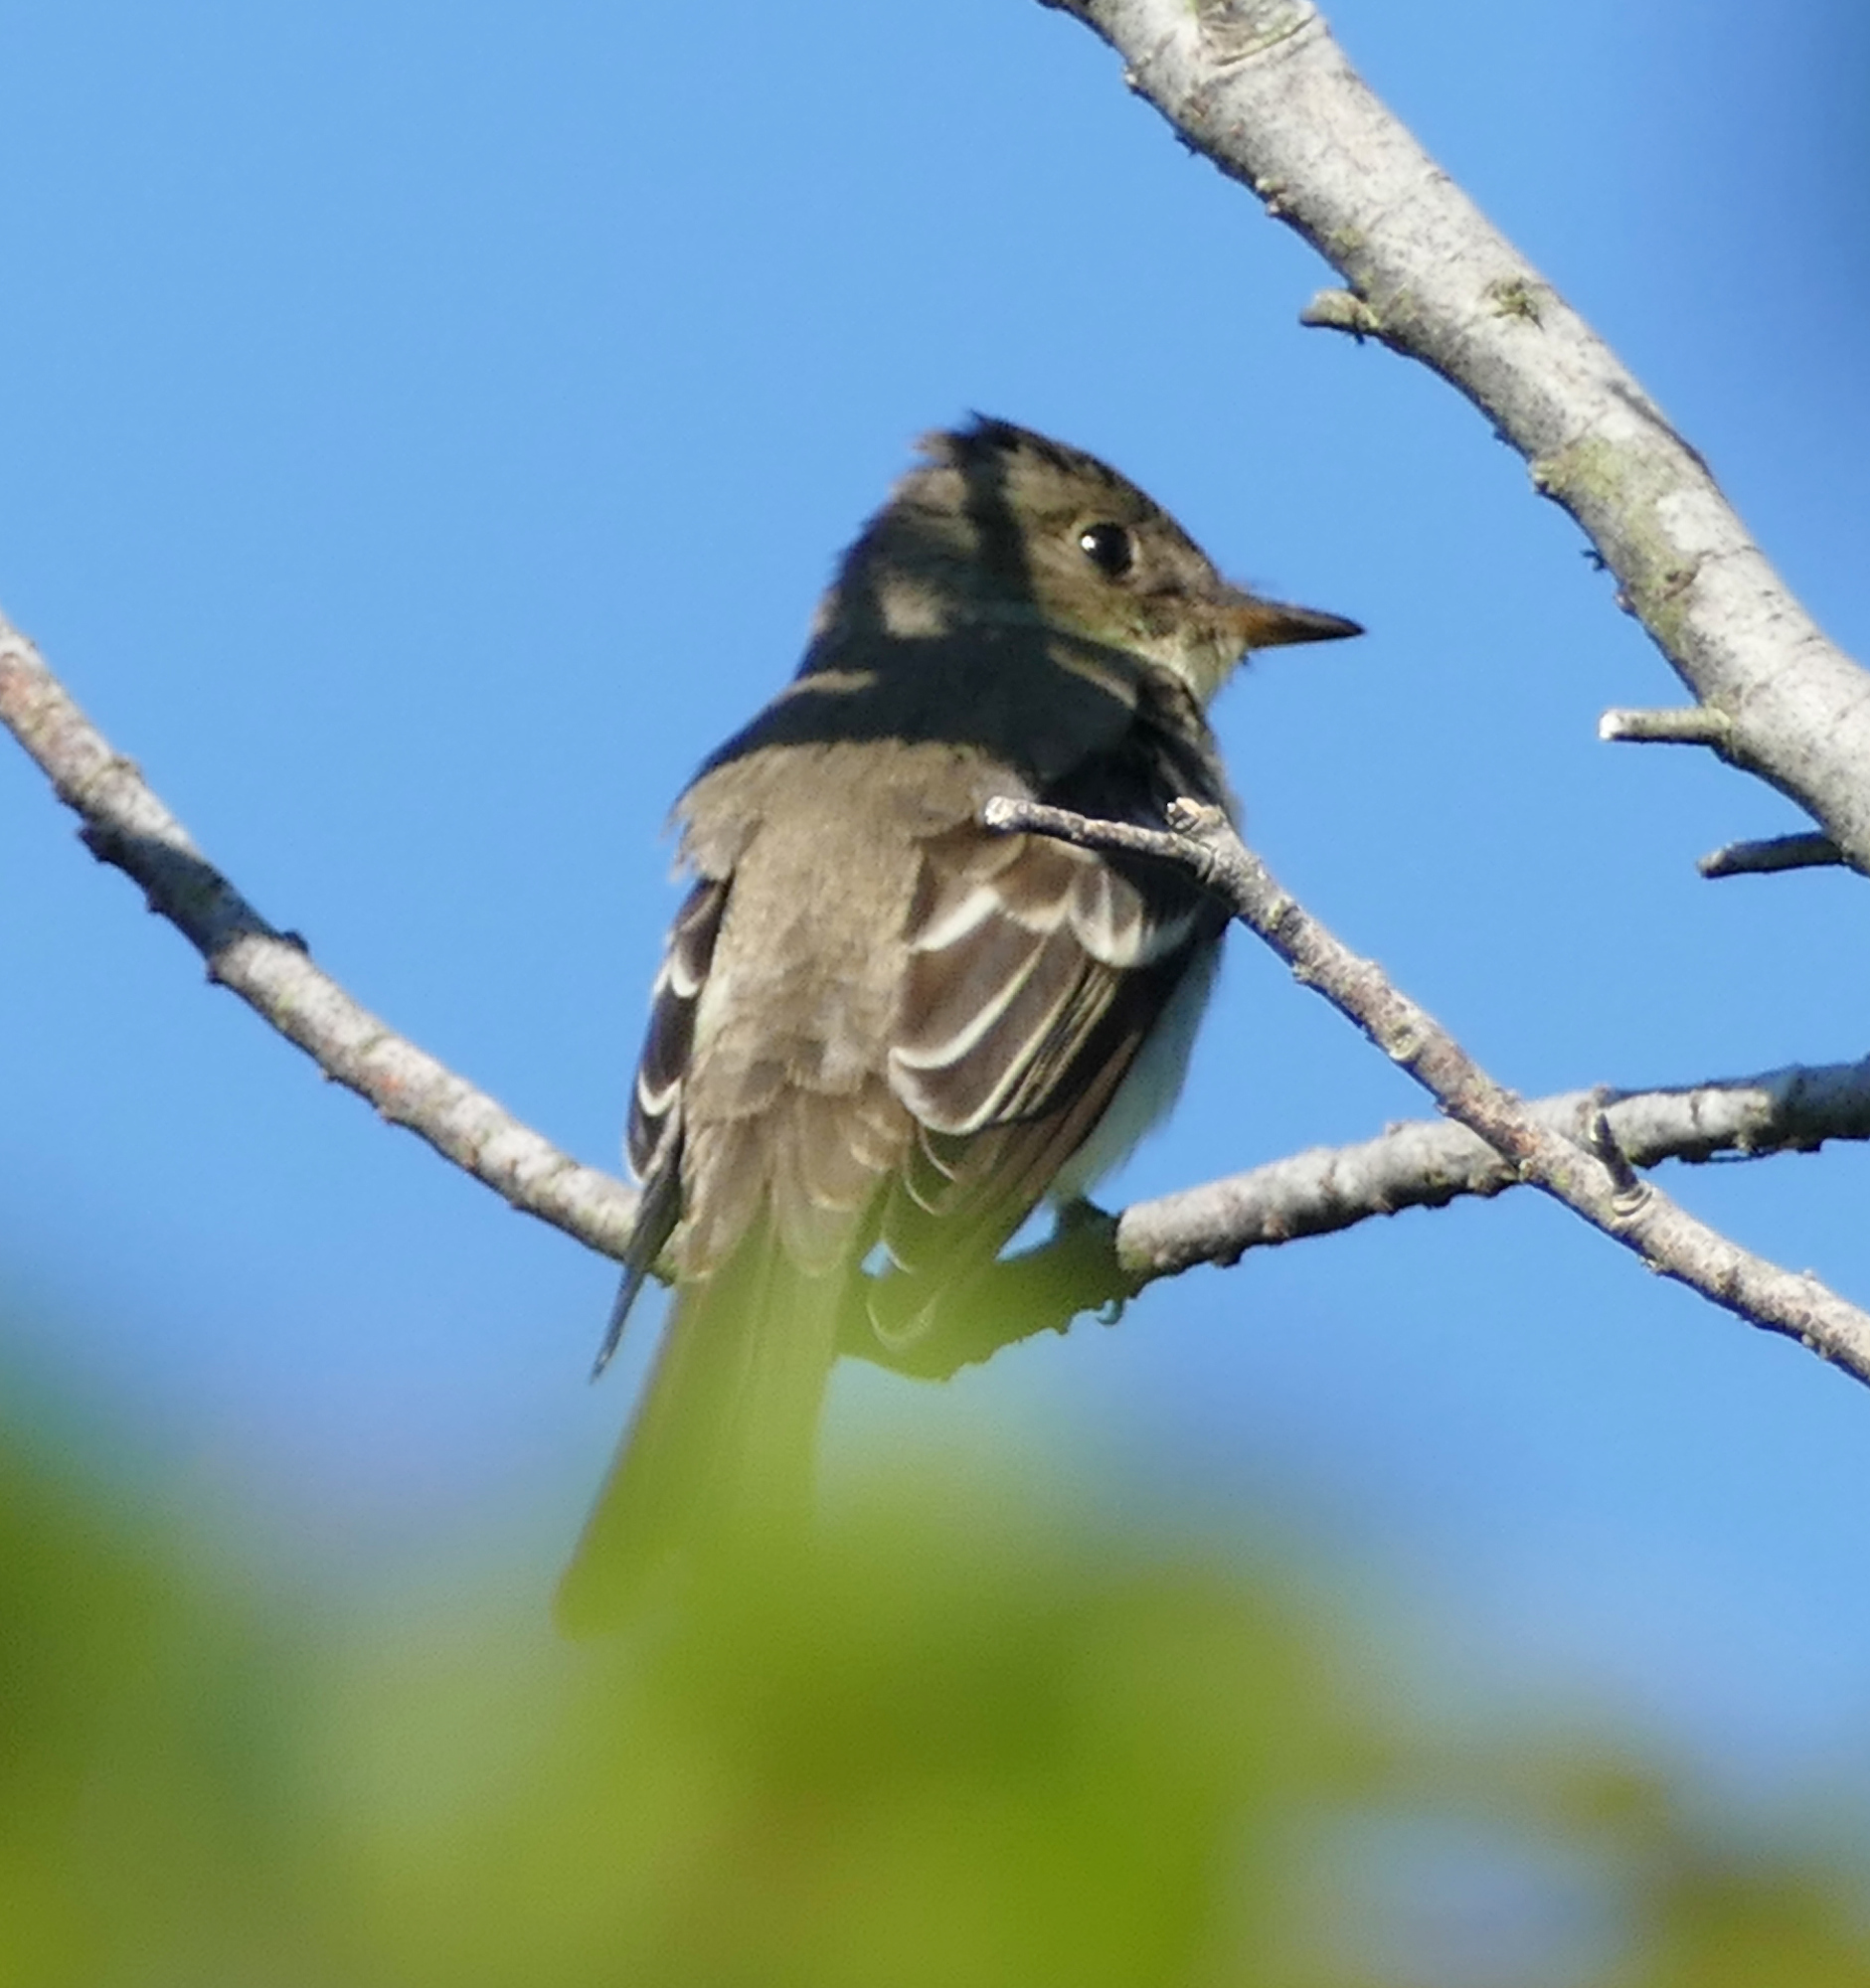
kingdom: Animalia
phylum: Chordata
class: Aves
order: Passeriformes
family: Tyrannidae
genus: Contopus
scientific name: Contopus virens
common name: Eastern wood-pewee
